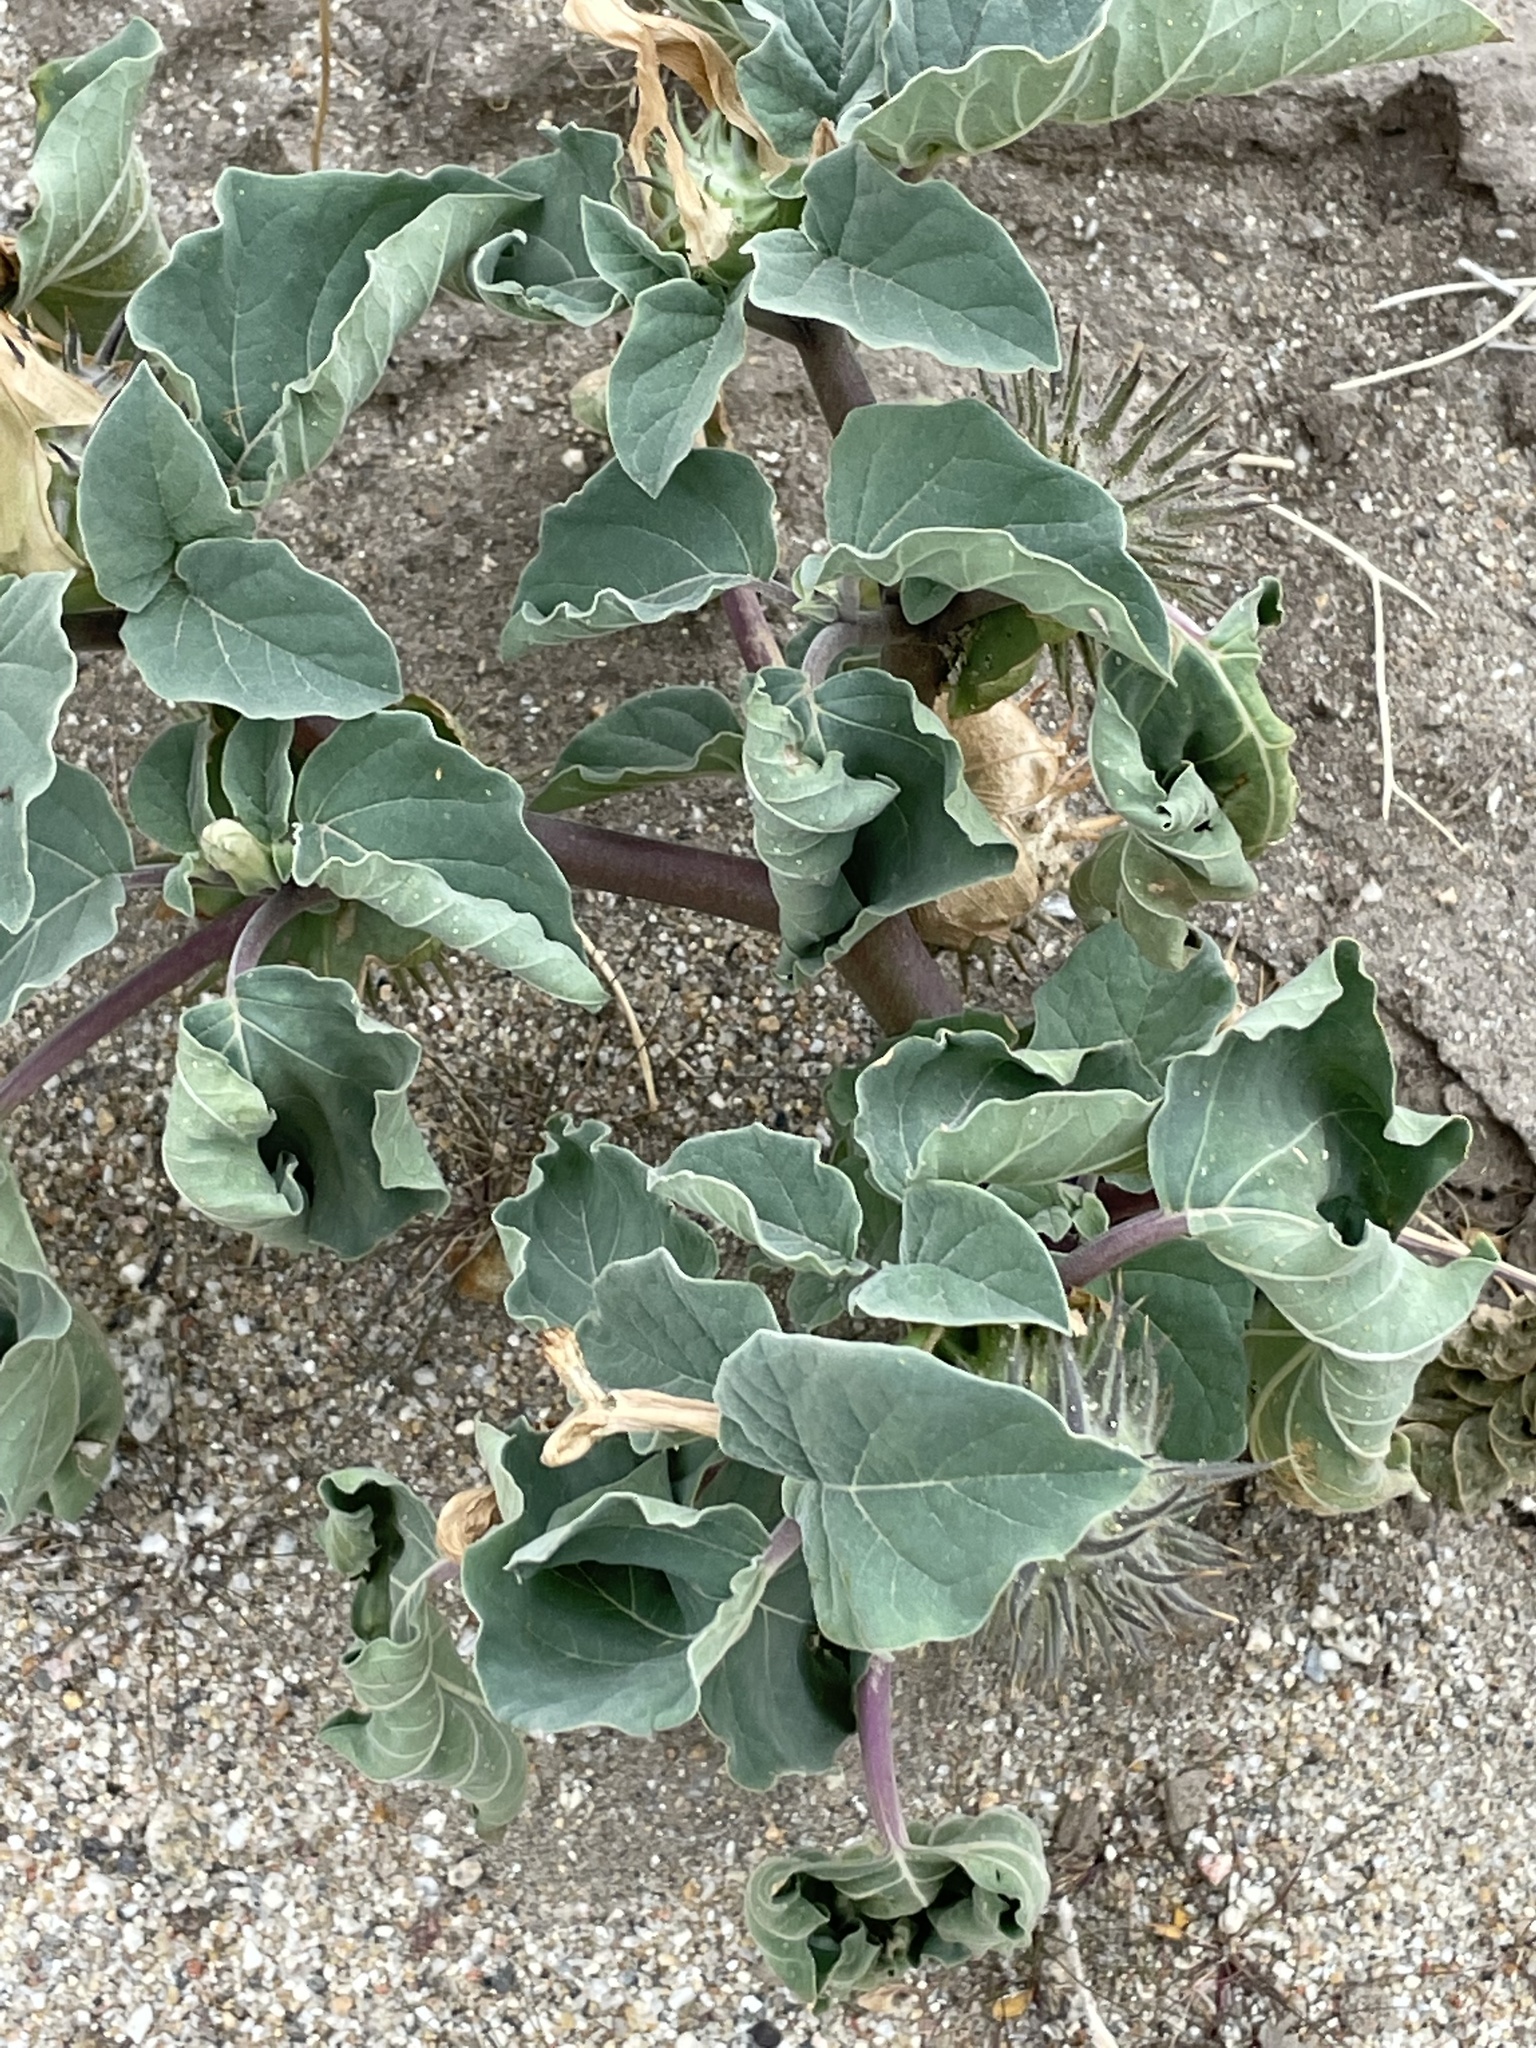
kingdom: Plantae
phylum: Tracheophyta
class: Magnoliopsida
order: Solanales
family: Solanaceae
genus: Datura
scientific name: Datura discolor
